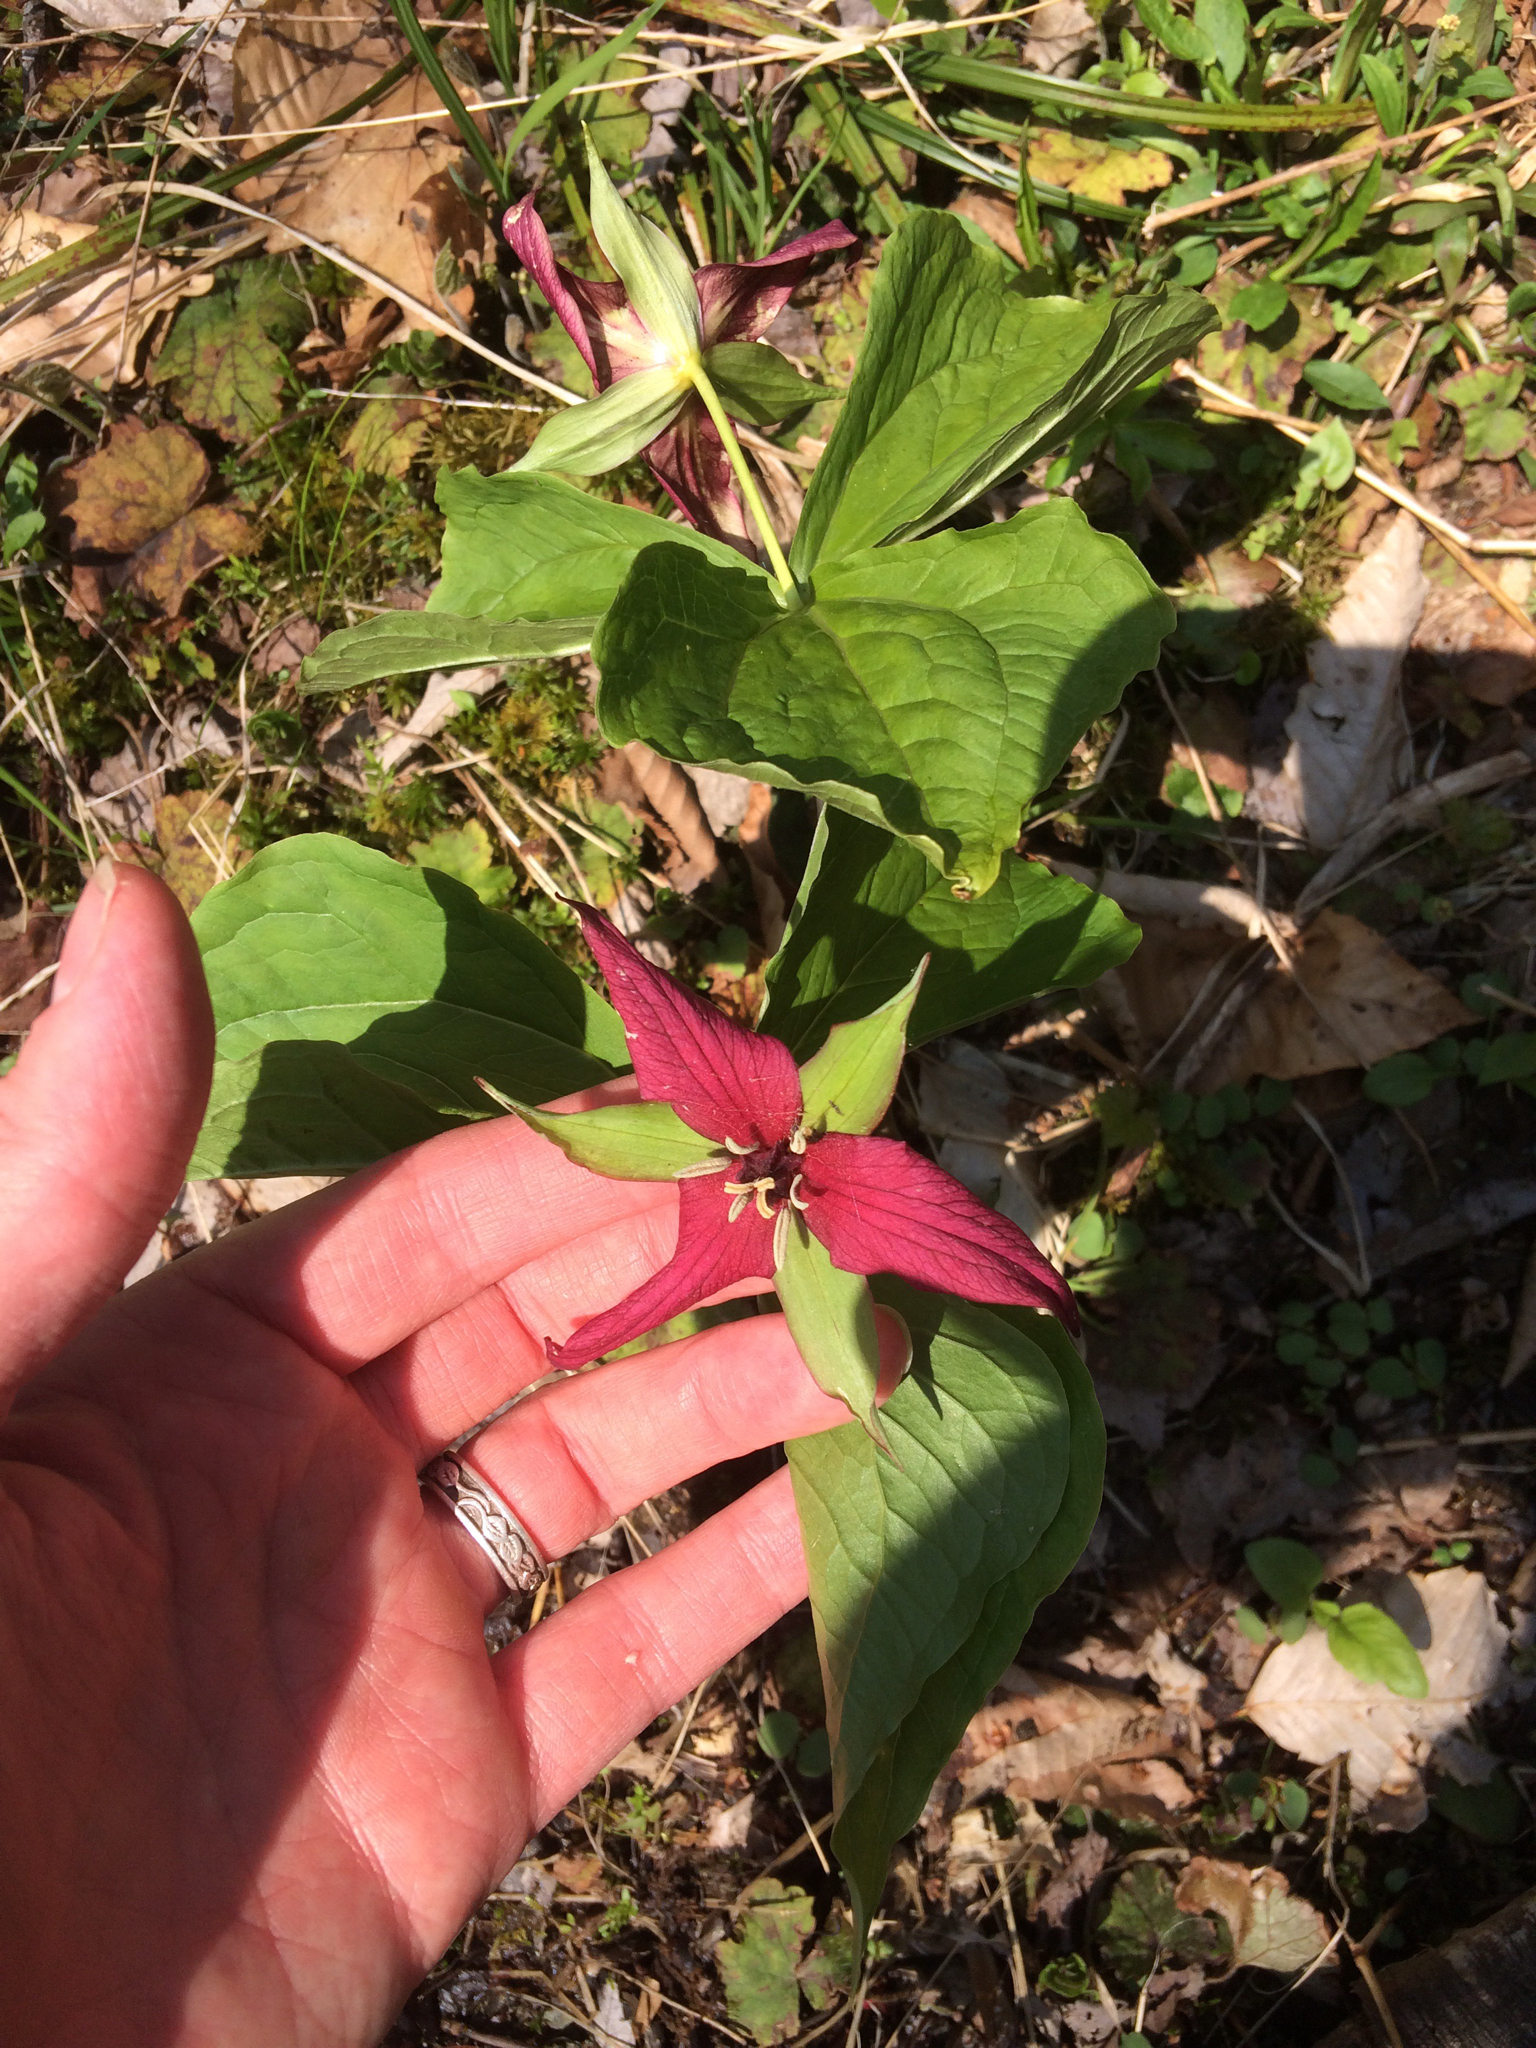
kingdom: Plantae
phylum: Tracheophyta
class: Liliopsida
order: Liliales
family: Melanthiaceae
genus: Trillium
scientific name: Trillium erectum
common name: Purple trillium
